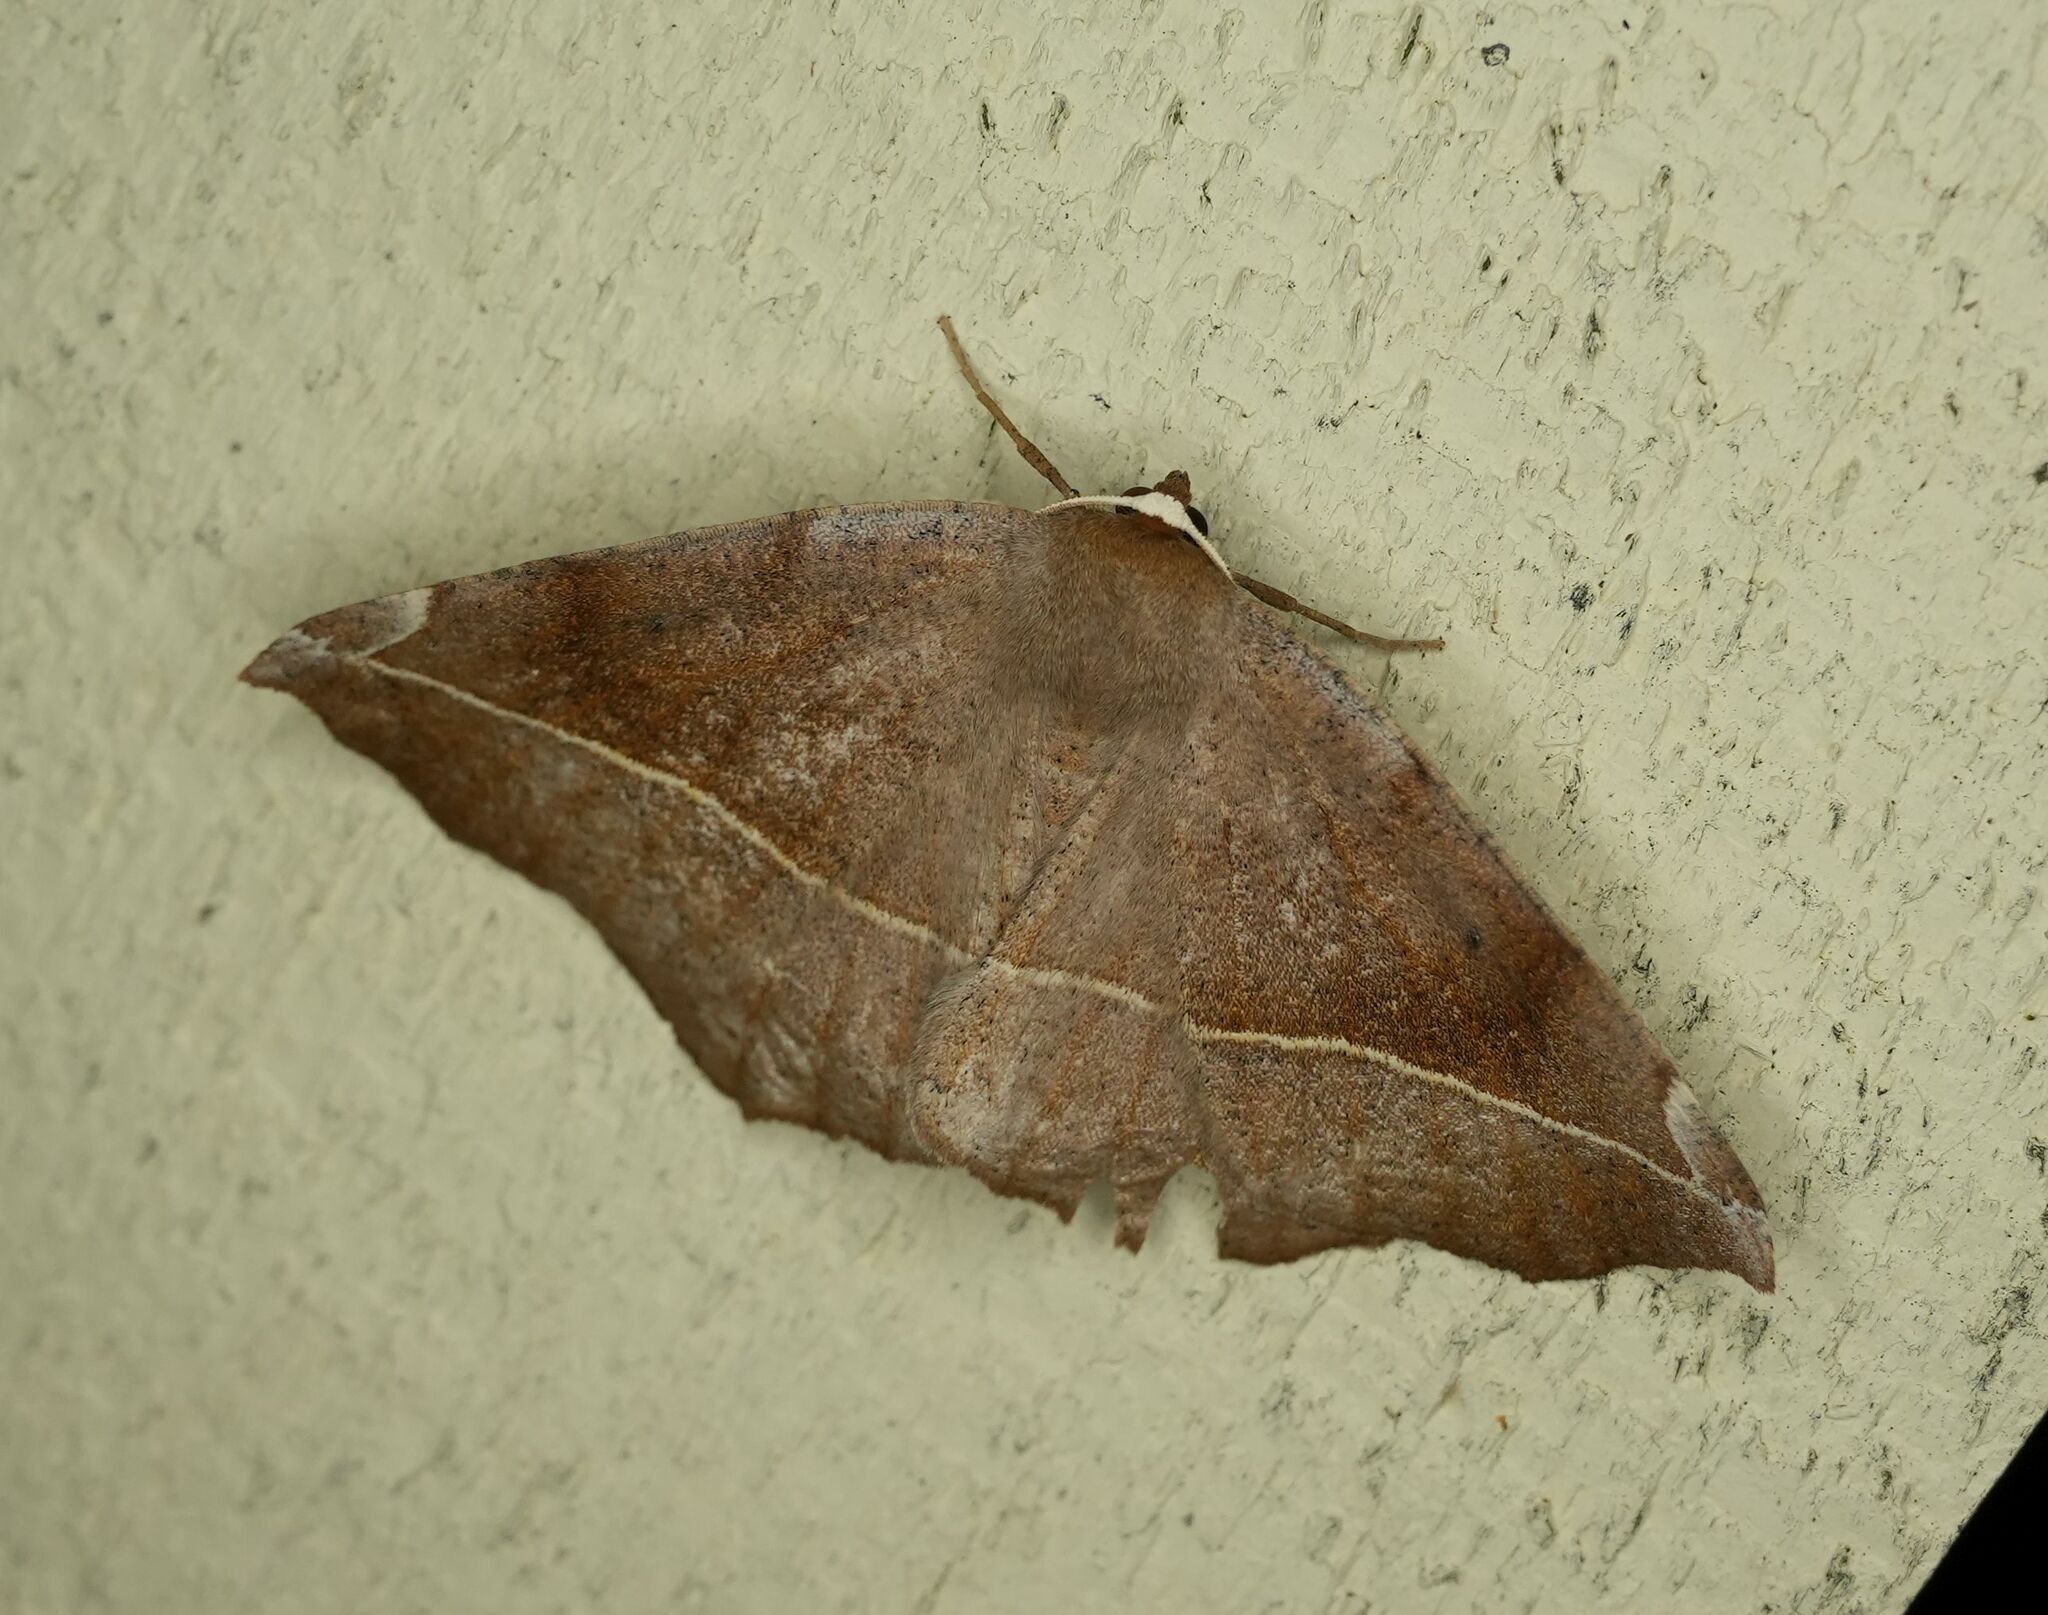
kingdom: Animalia
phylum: Arthropoda
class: Insecta
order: Lepidoptera
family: Geometridae
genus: Eutrapela
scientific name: Eutrapela clemataria
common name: Curved-toothed geometer
